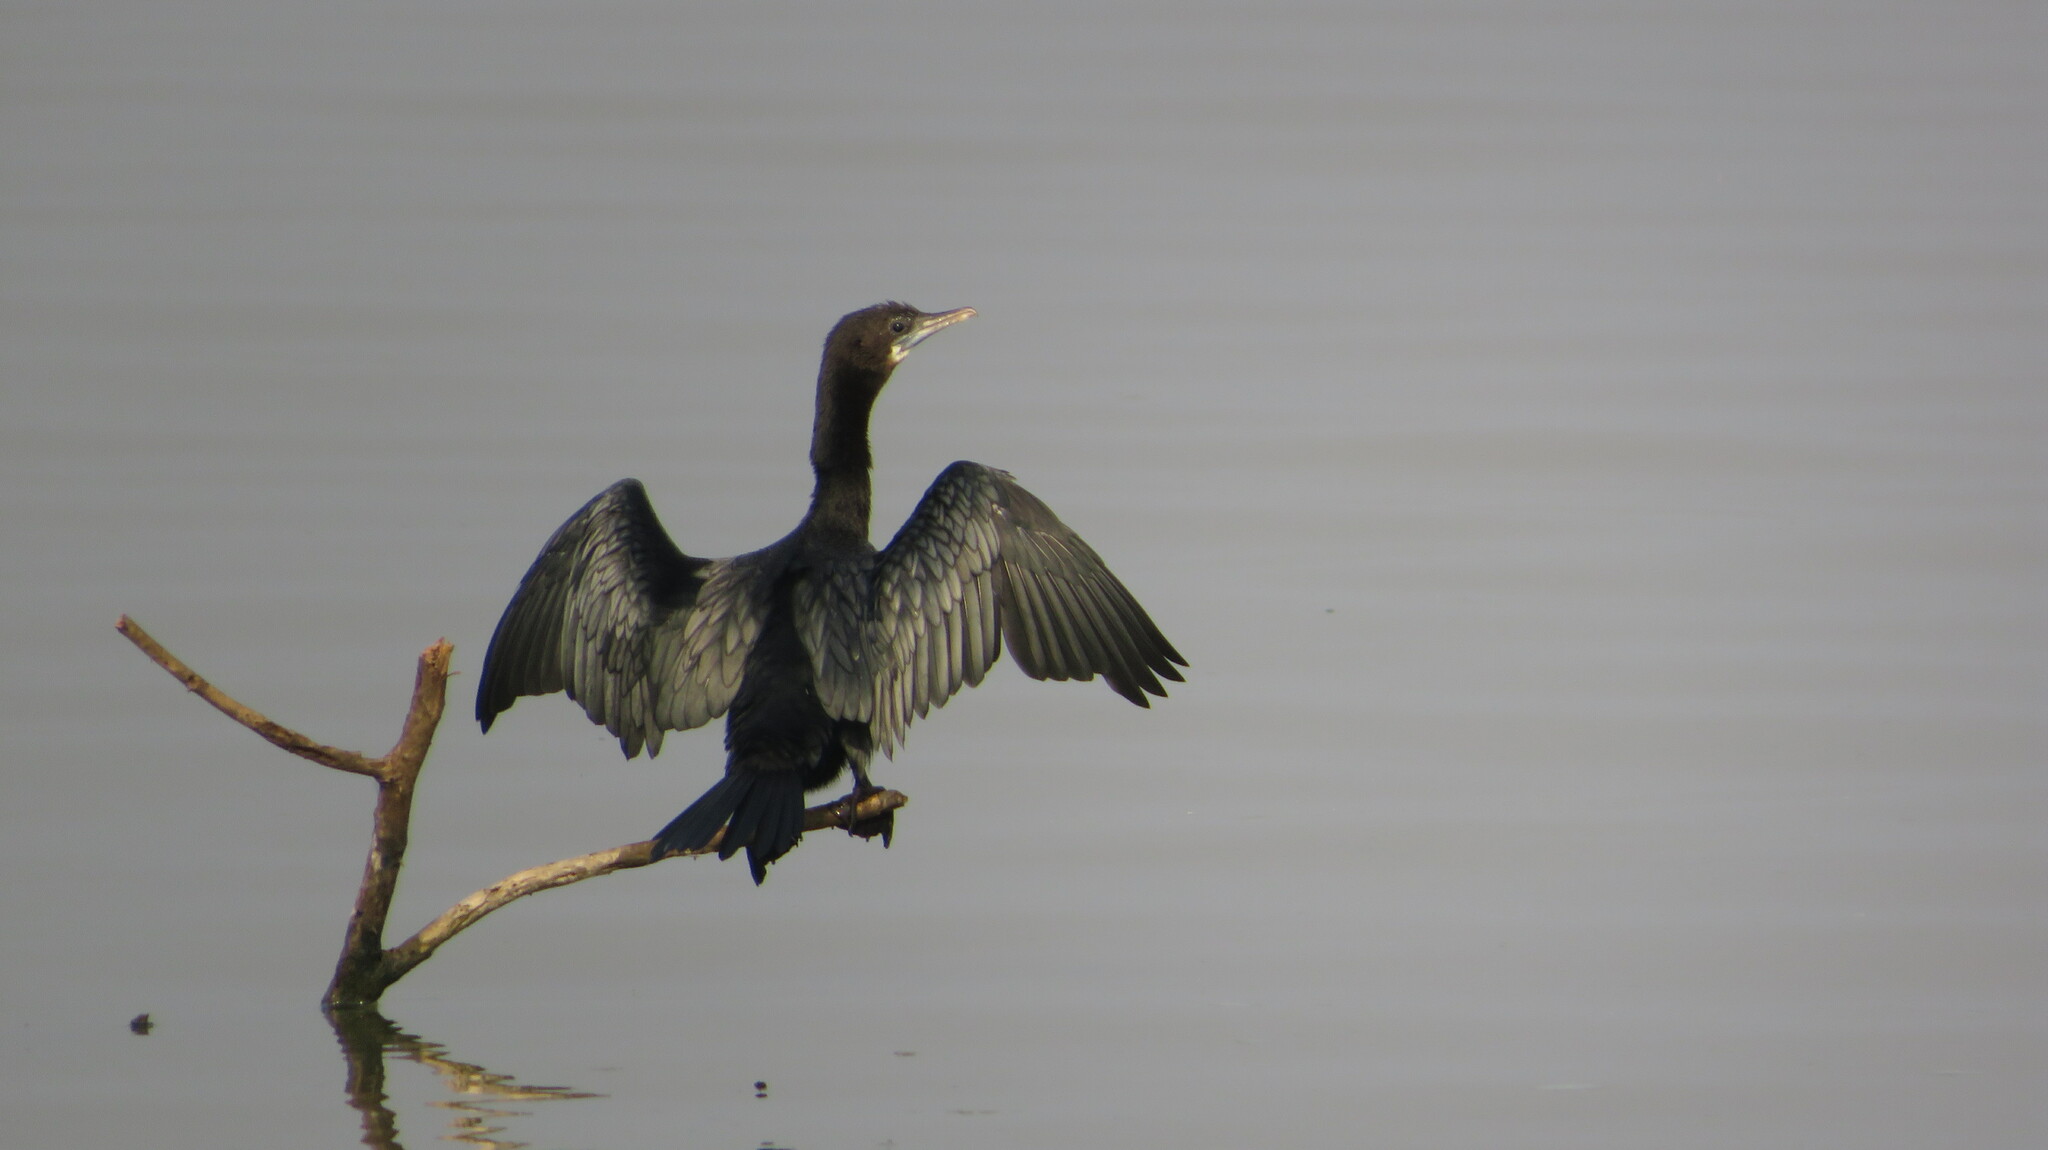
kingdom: Animalia
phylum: Chordata
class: Aves
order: Suliformes
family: Phalacrocoracidae
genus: Microcarbo
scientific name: Microcarbo niger
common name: Little cormorant
